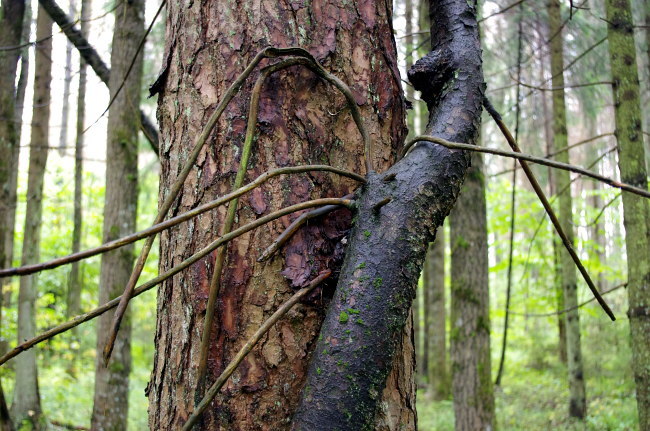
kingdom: Plantae
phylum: Tracheophyta
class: Pinopsida
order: Pinales
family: Pinaceae
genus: Picea
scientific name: Picea abies
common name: Norway spruce
